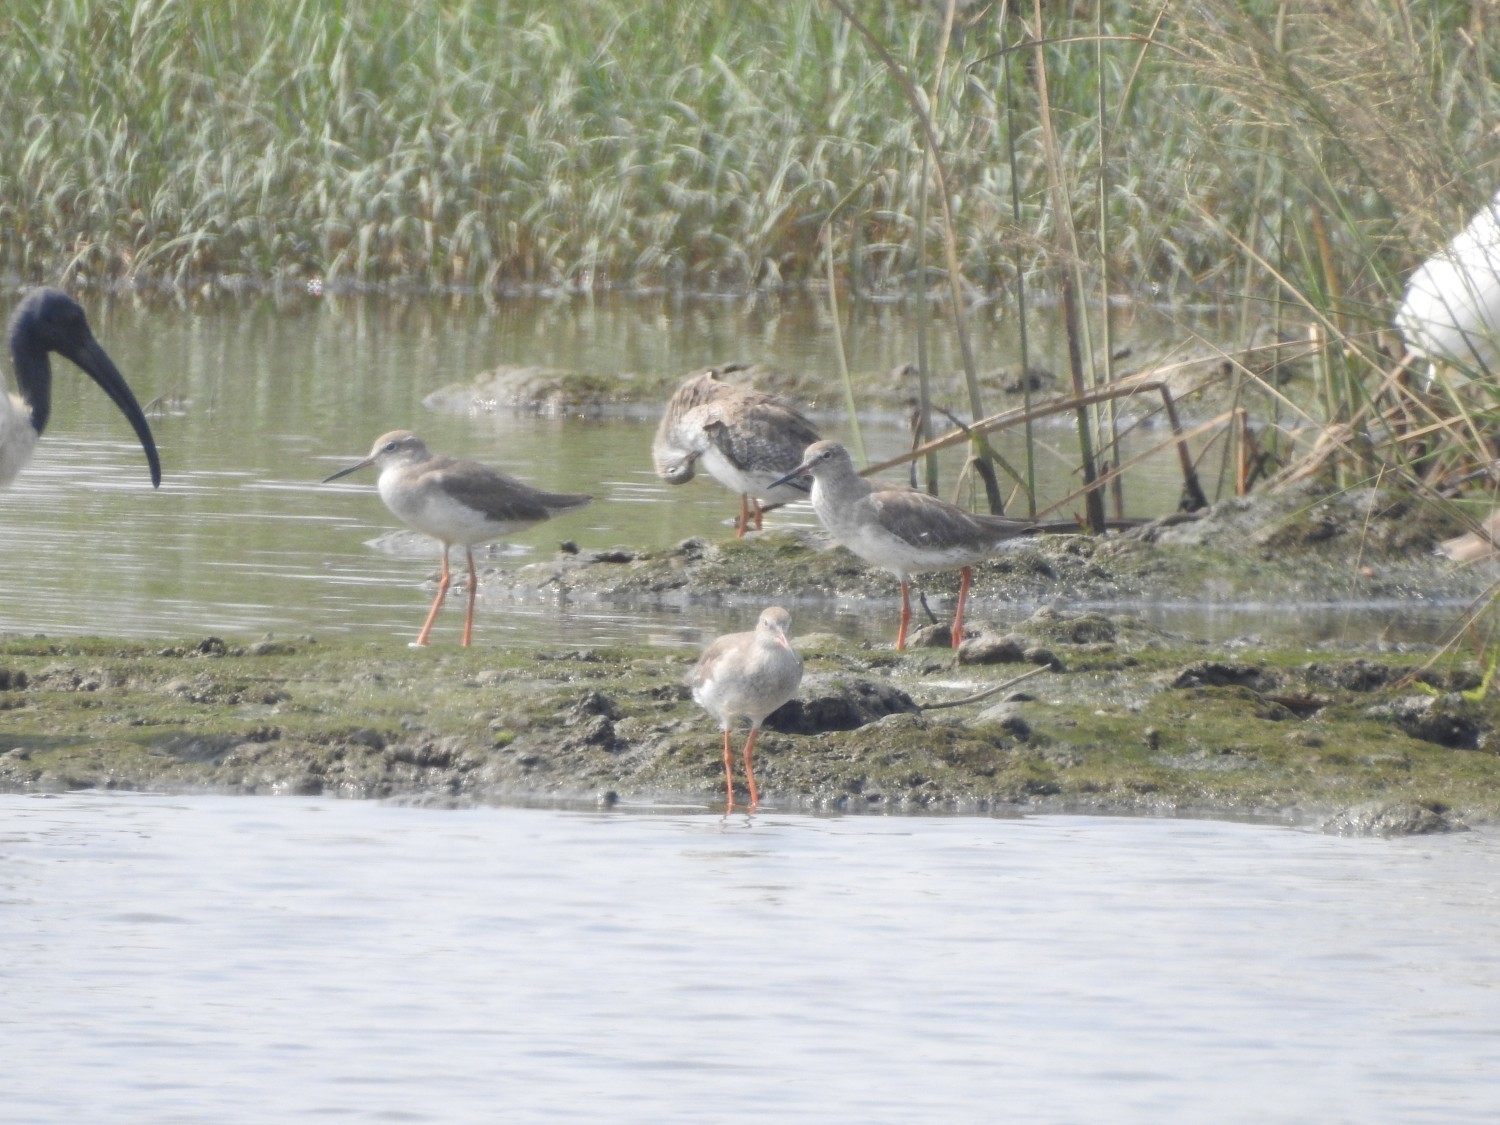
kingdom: Animalia
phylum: Chordata
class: Aves
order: Charadriiformes
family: Scolopacidae
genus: Tringa
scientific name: Tringa totanus
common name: Common redshank
